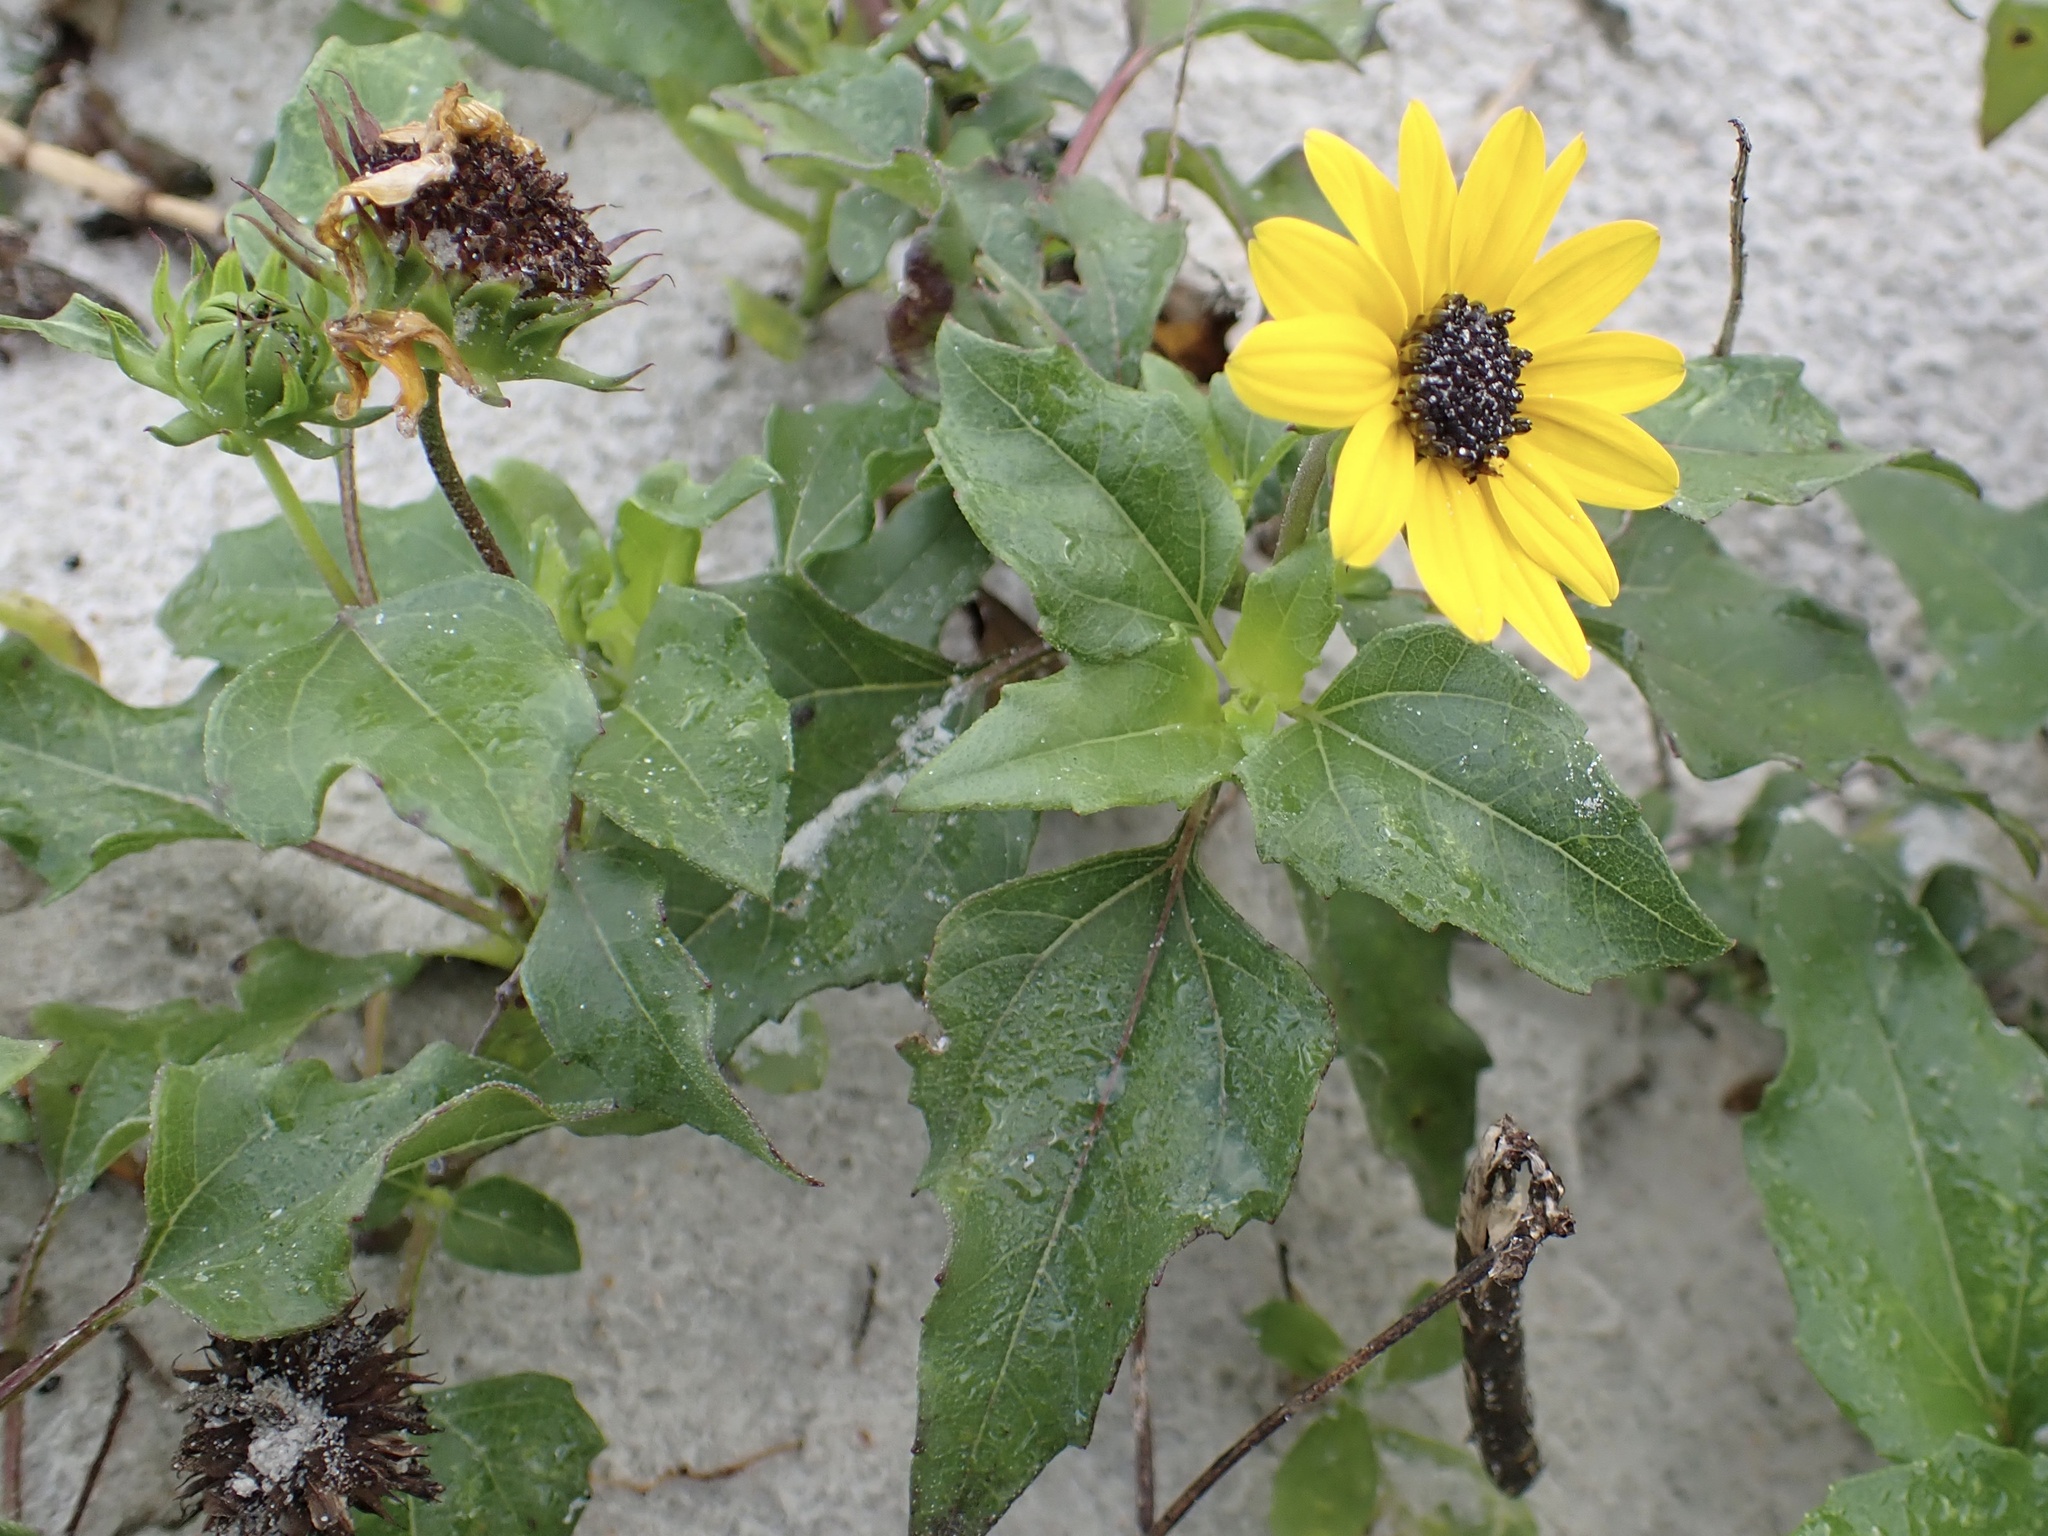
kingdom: Plantae
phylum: Tracheophyta
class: Magnoliopsida
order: Asterales
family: Asteraceae
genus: Helianthus
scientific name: Helianthus debilis
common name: Weak sunflower
